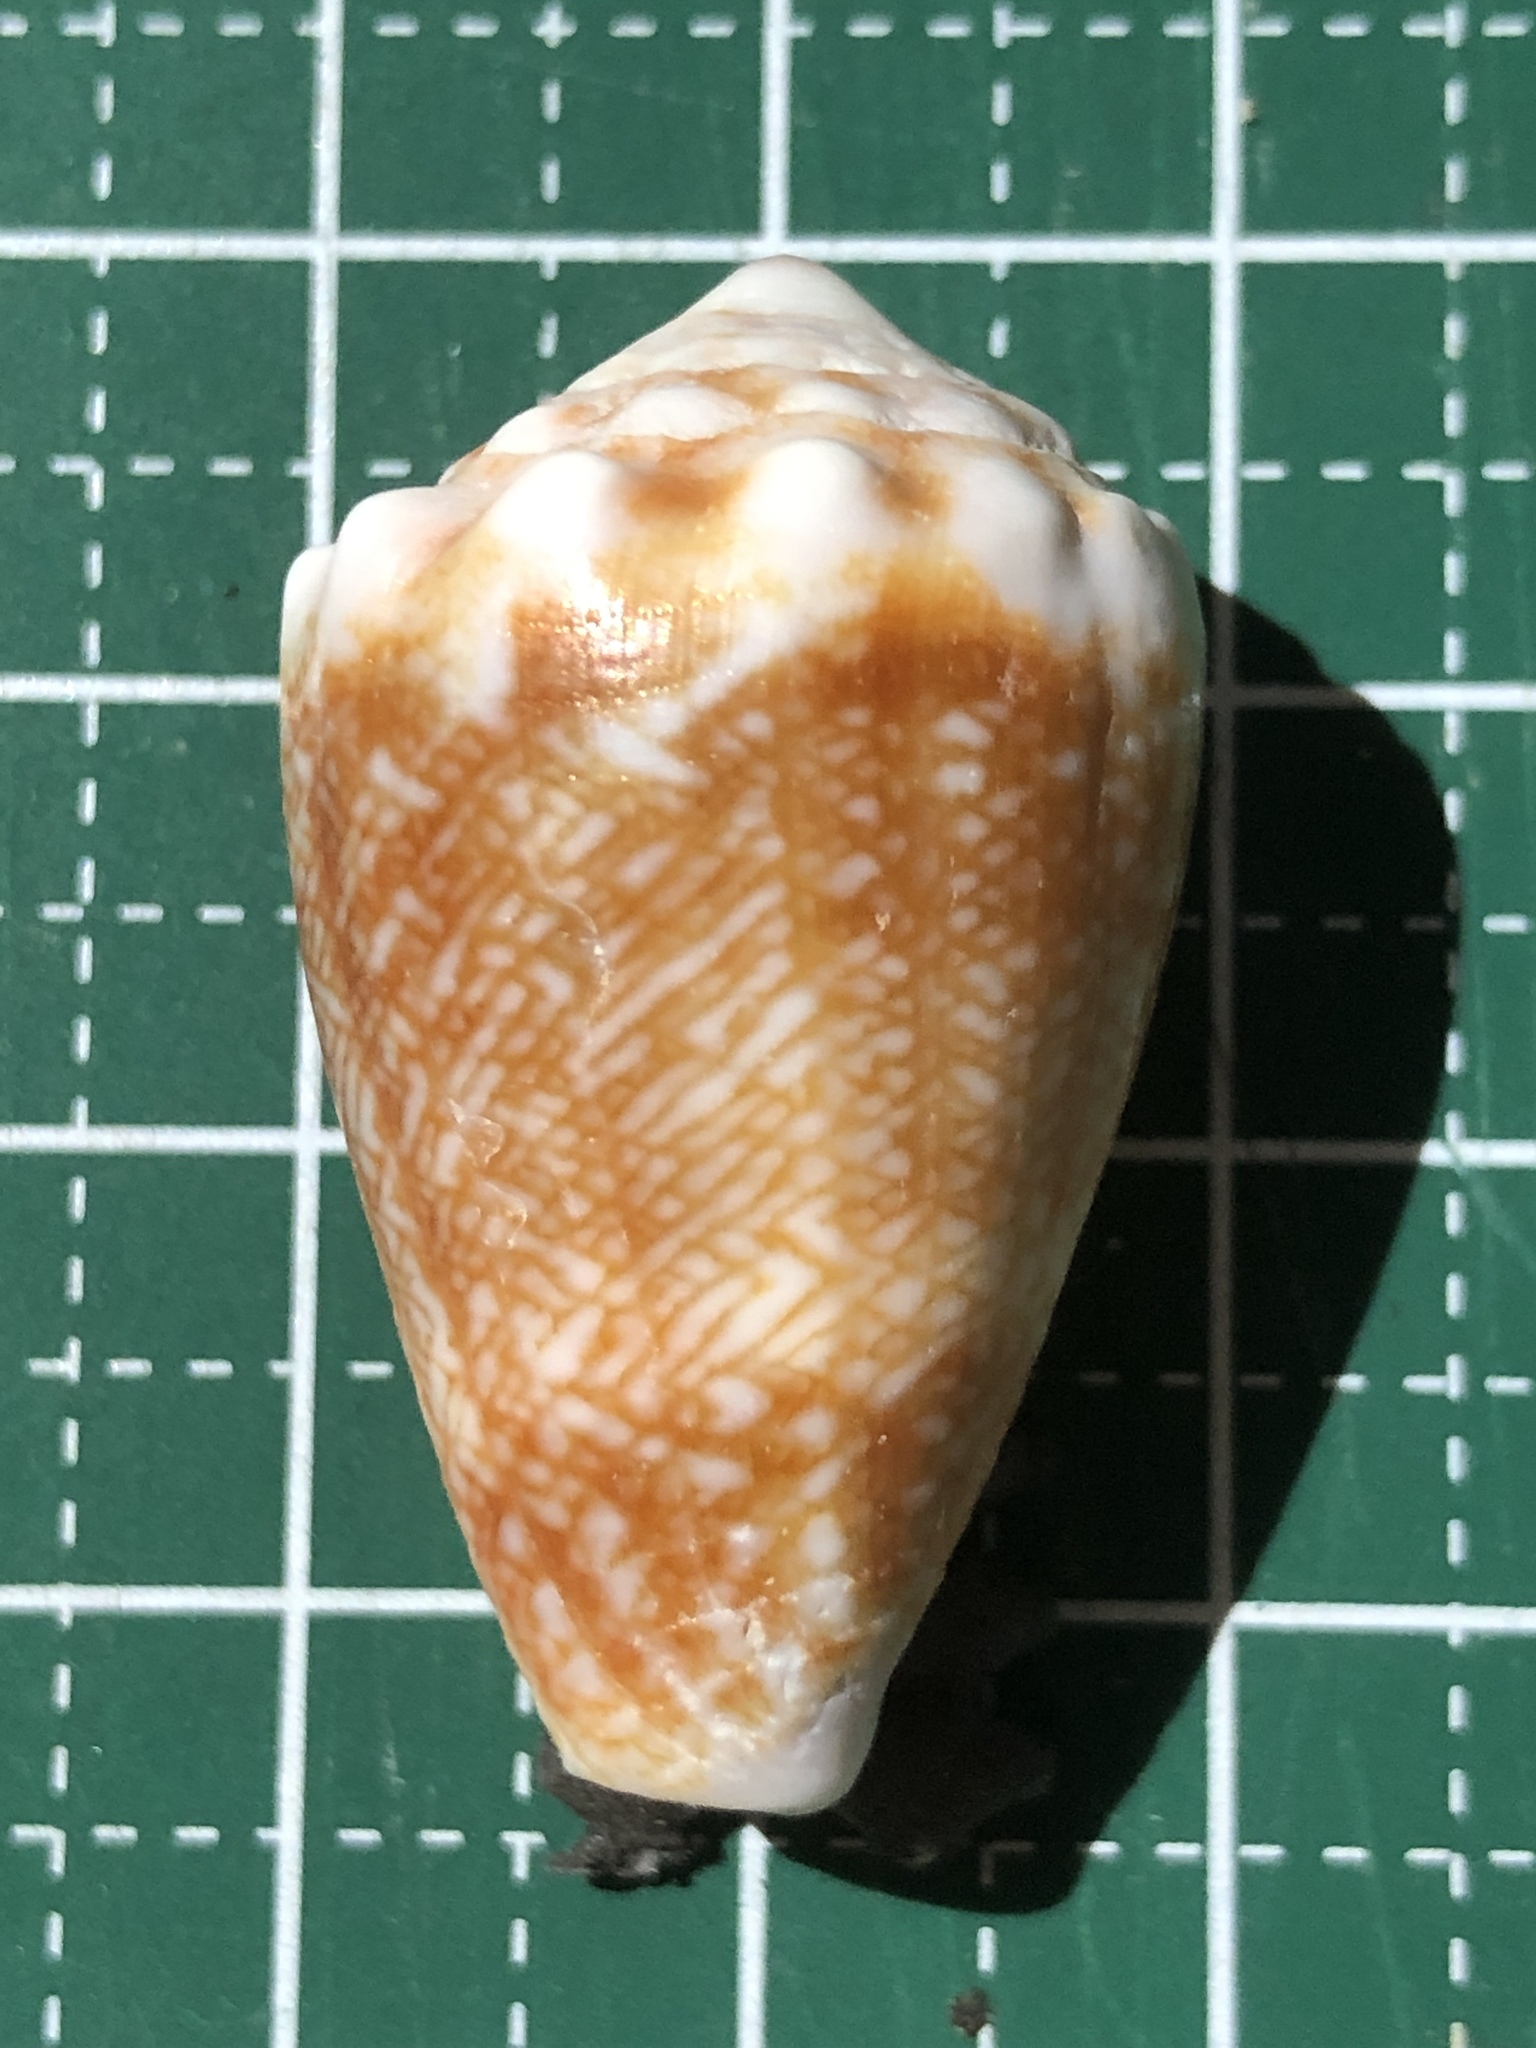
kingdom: Animalia
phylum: Mollusca
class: Gastropoda
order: Neogastropoda
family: Conidae
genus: Conus
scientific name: Conus fulgetrum
